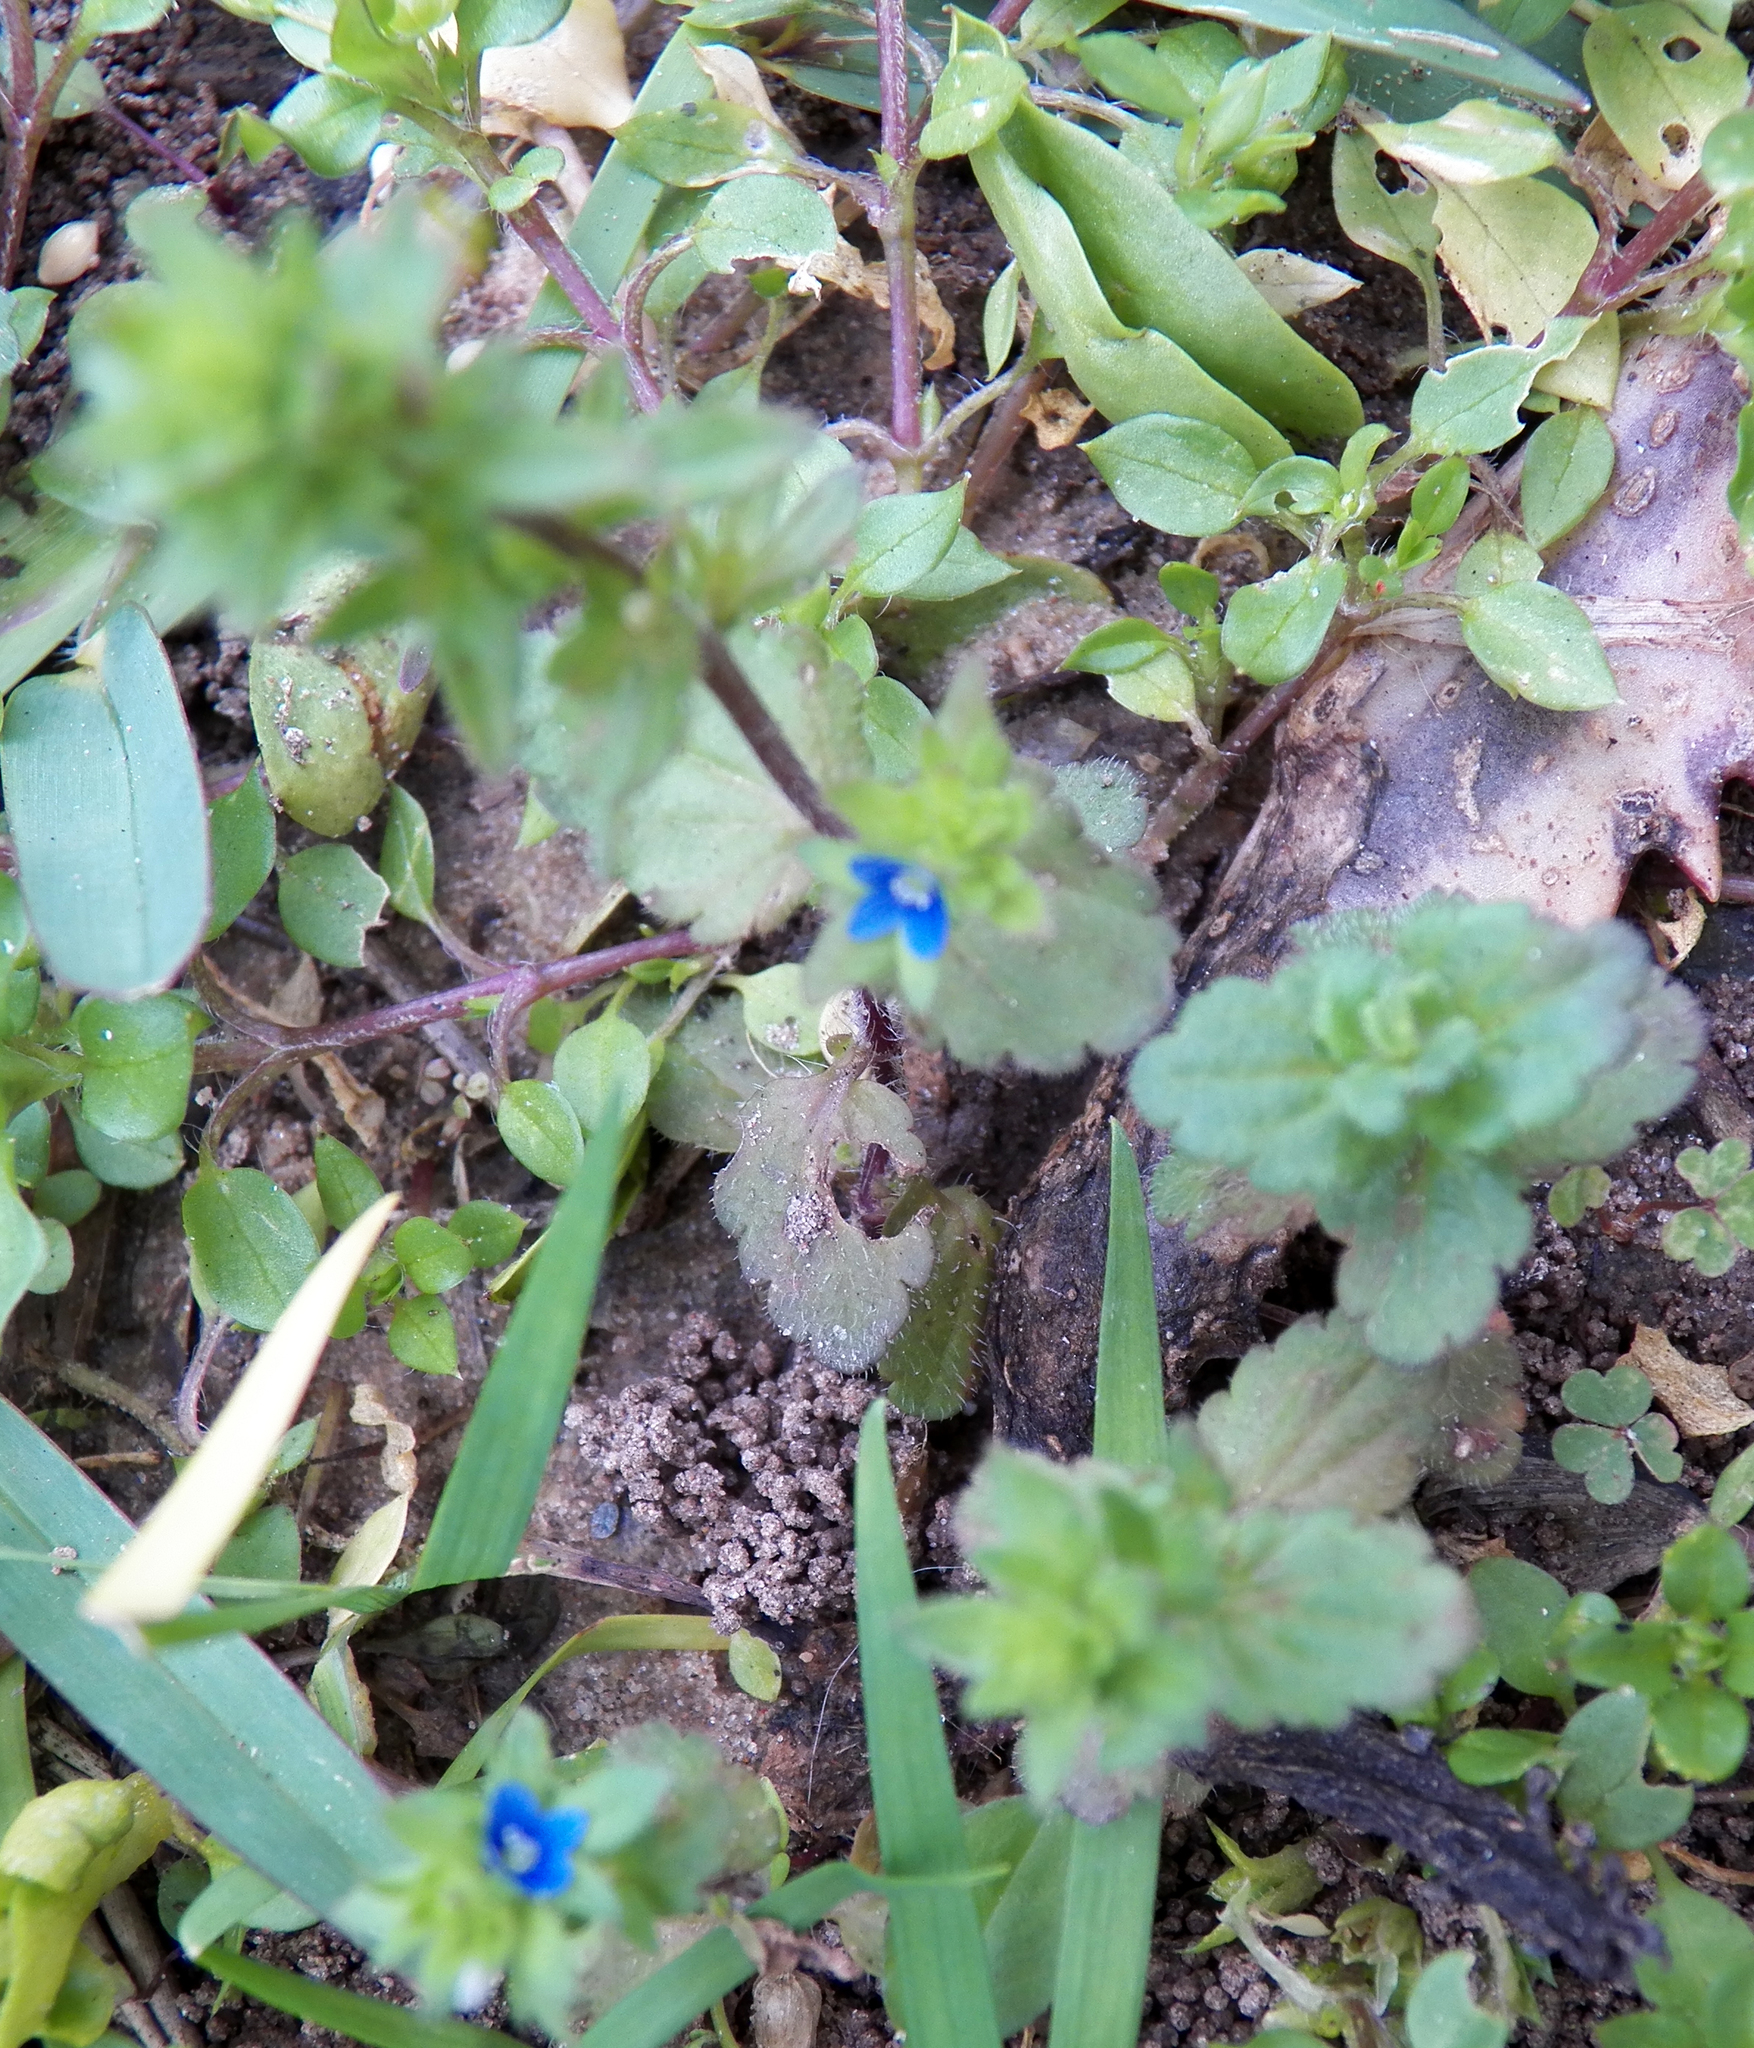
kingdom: Plantae
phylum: Tracheophyta
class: Magnoliopsida
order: Lamiales
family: Plantaginaceae
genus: Veronica
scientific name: Veronica arvensis
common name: Corn speedwell
